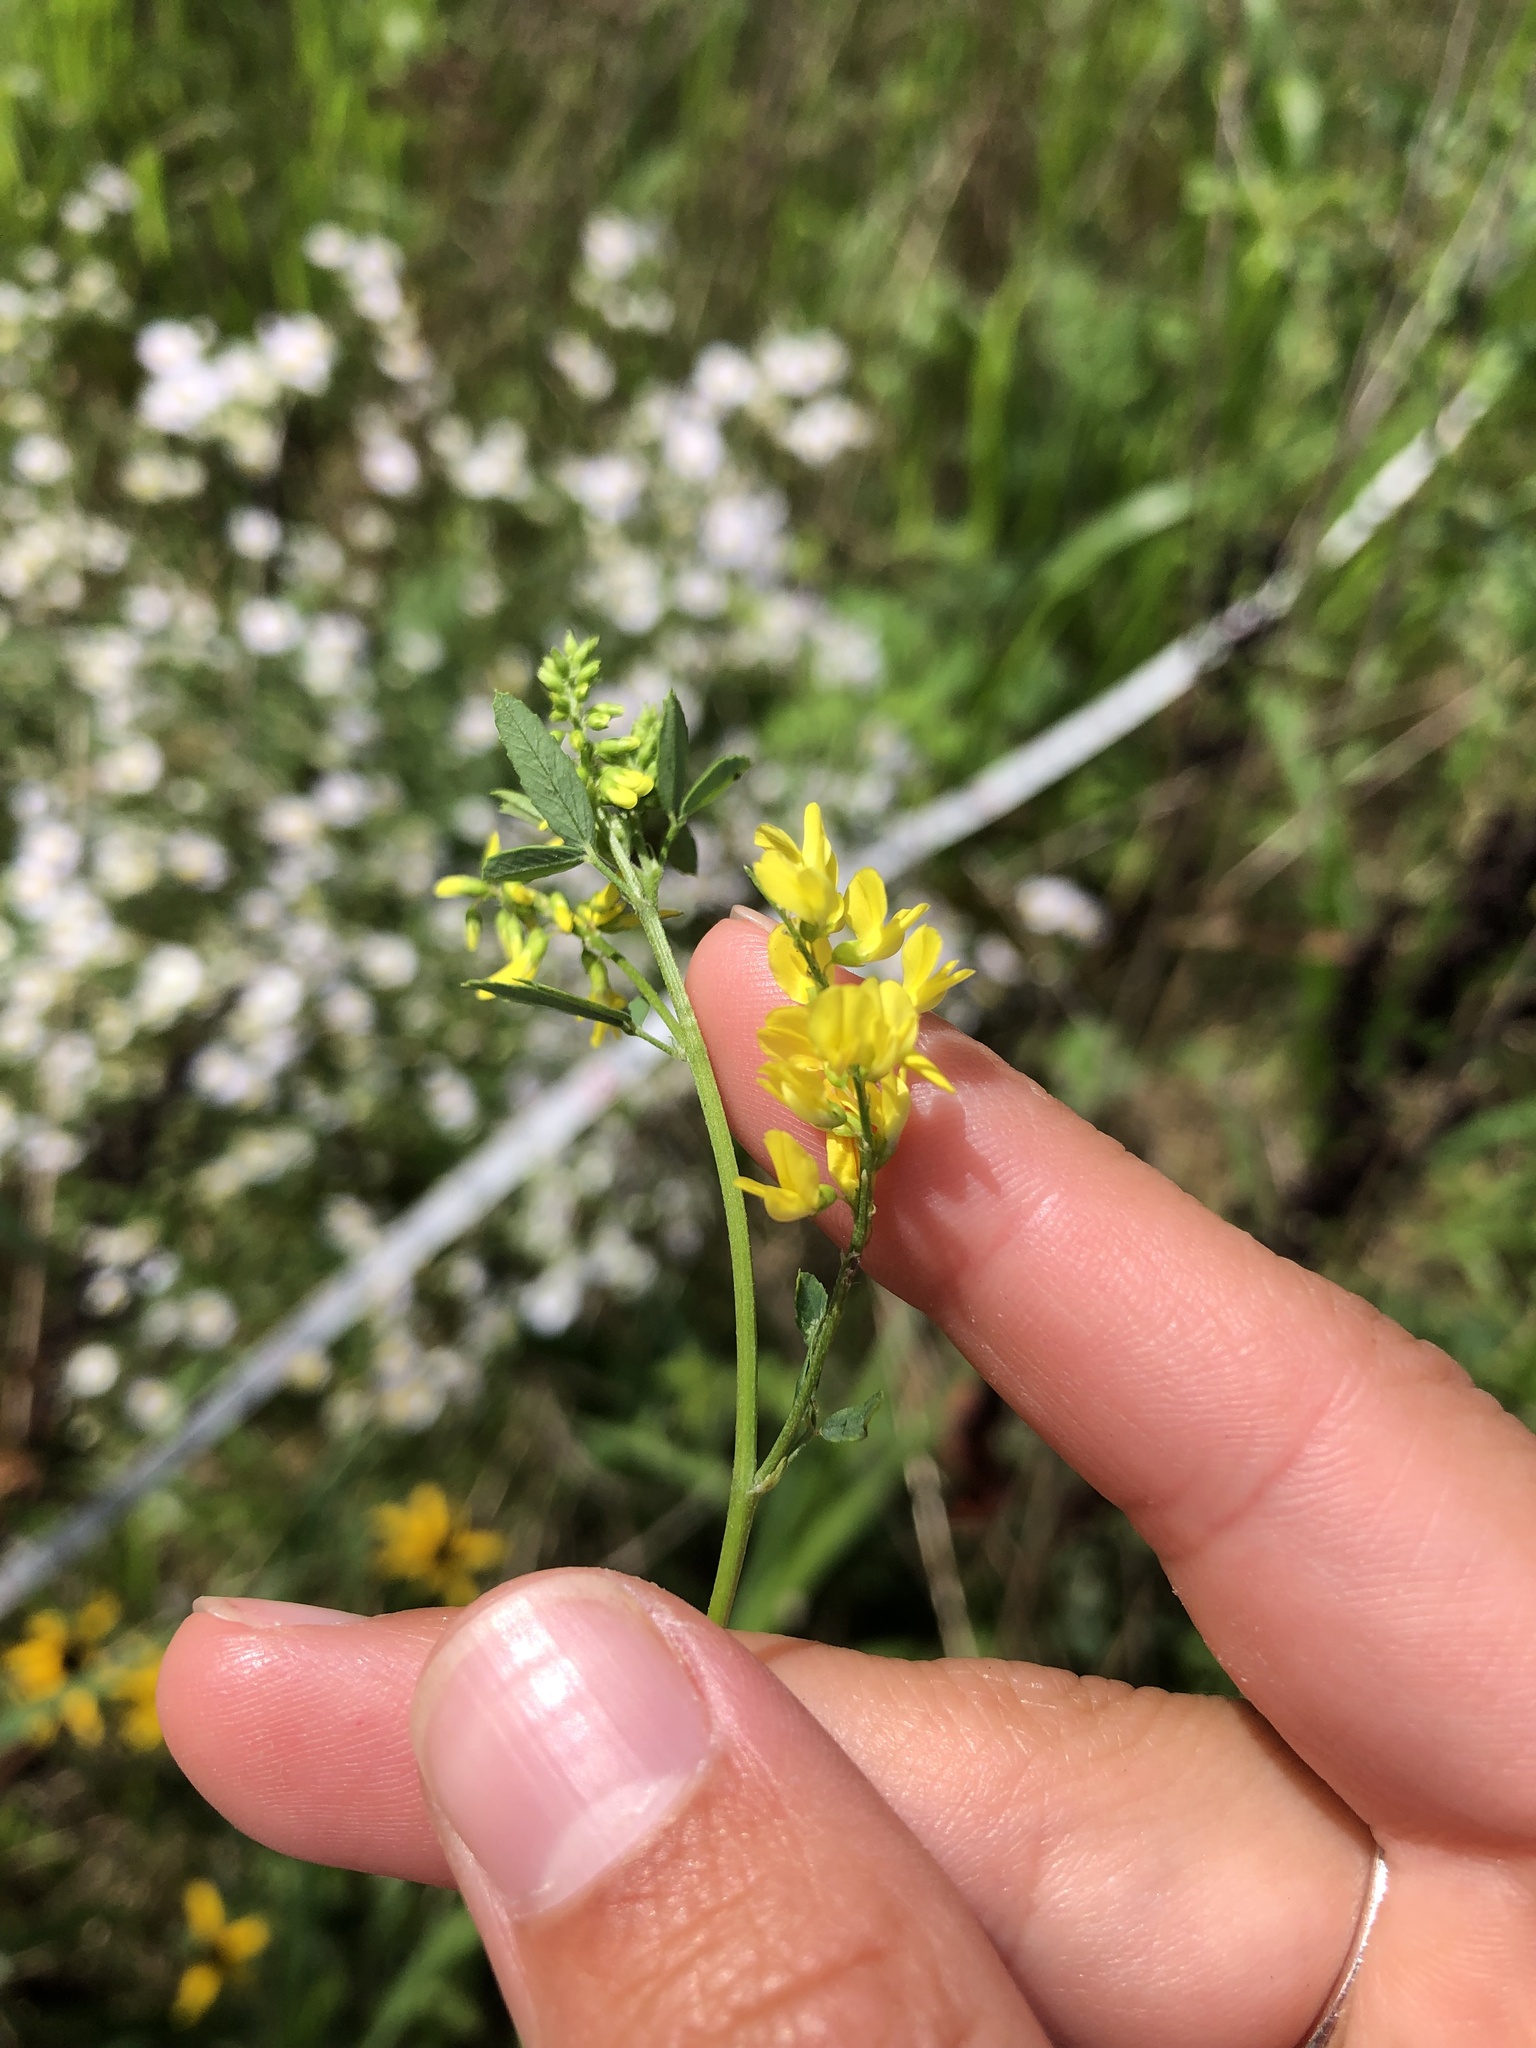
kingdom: Plantae
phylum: Tracheophyta
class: Magnoliopsida
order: Fabales
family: Fabaceae
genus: Melilotus
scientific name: Melilotus officinalis
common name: Sweetclover
